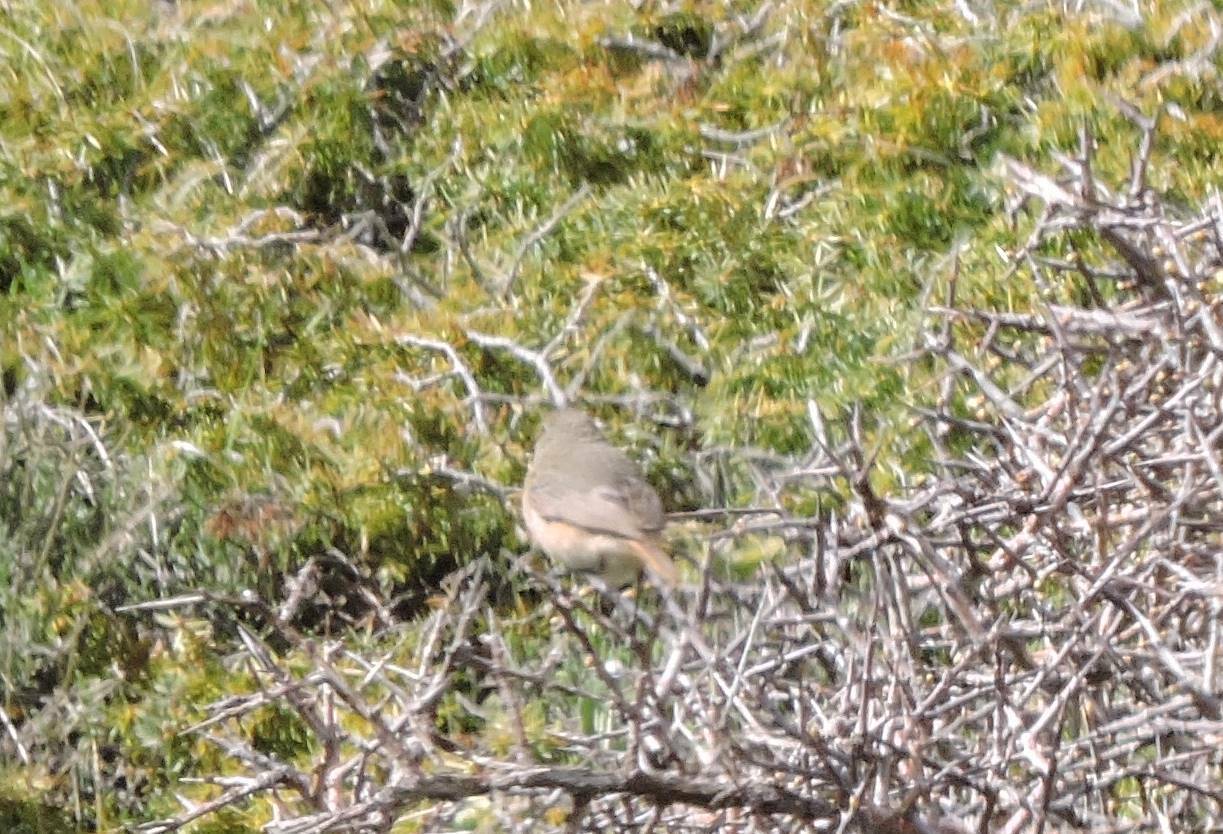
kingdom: Animalia
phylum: Chordata
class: Aves
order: Passeriformes
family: Muscicapidae
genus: Phoenicurus
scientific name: Phoenicurus phoenicurus
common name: Common redstart
